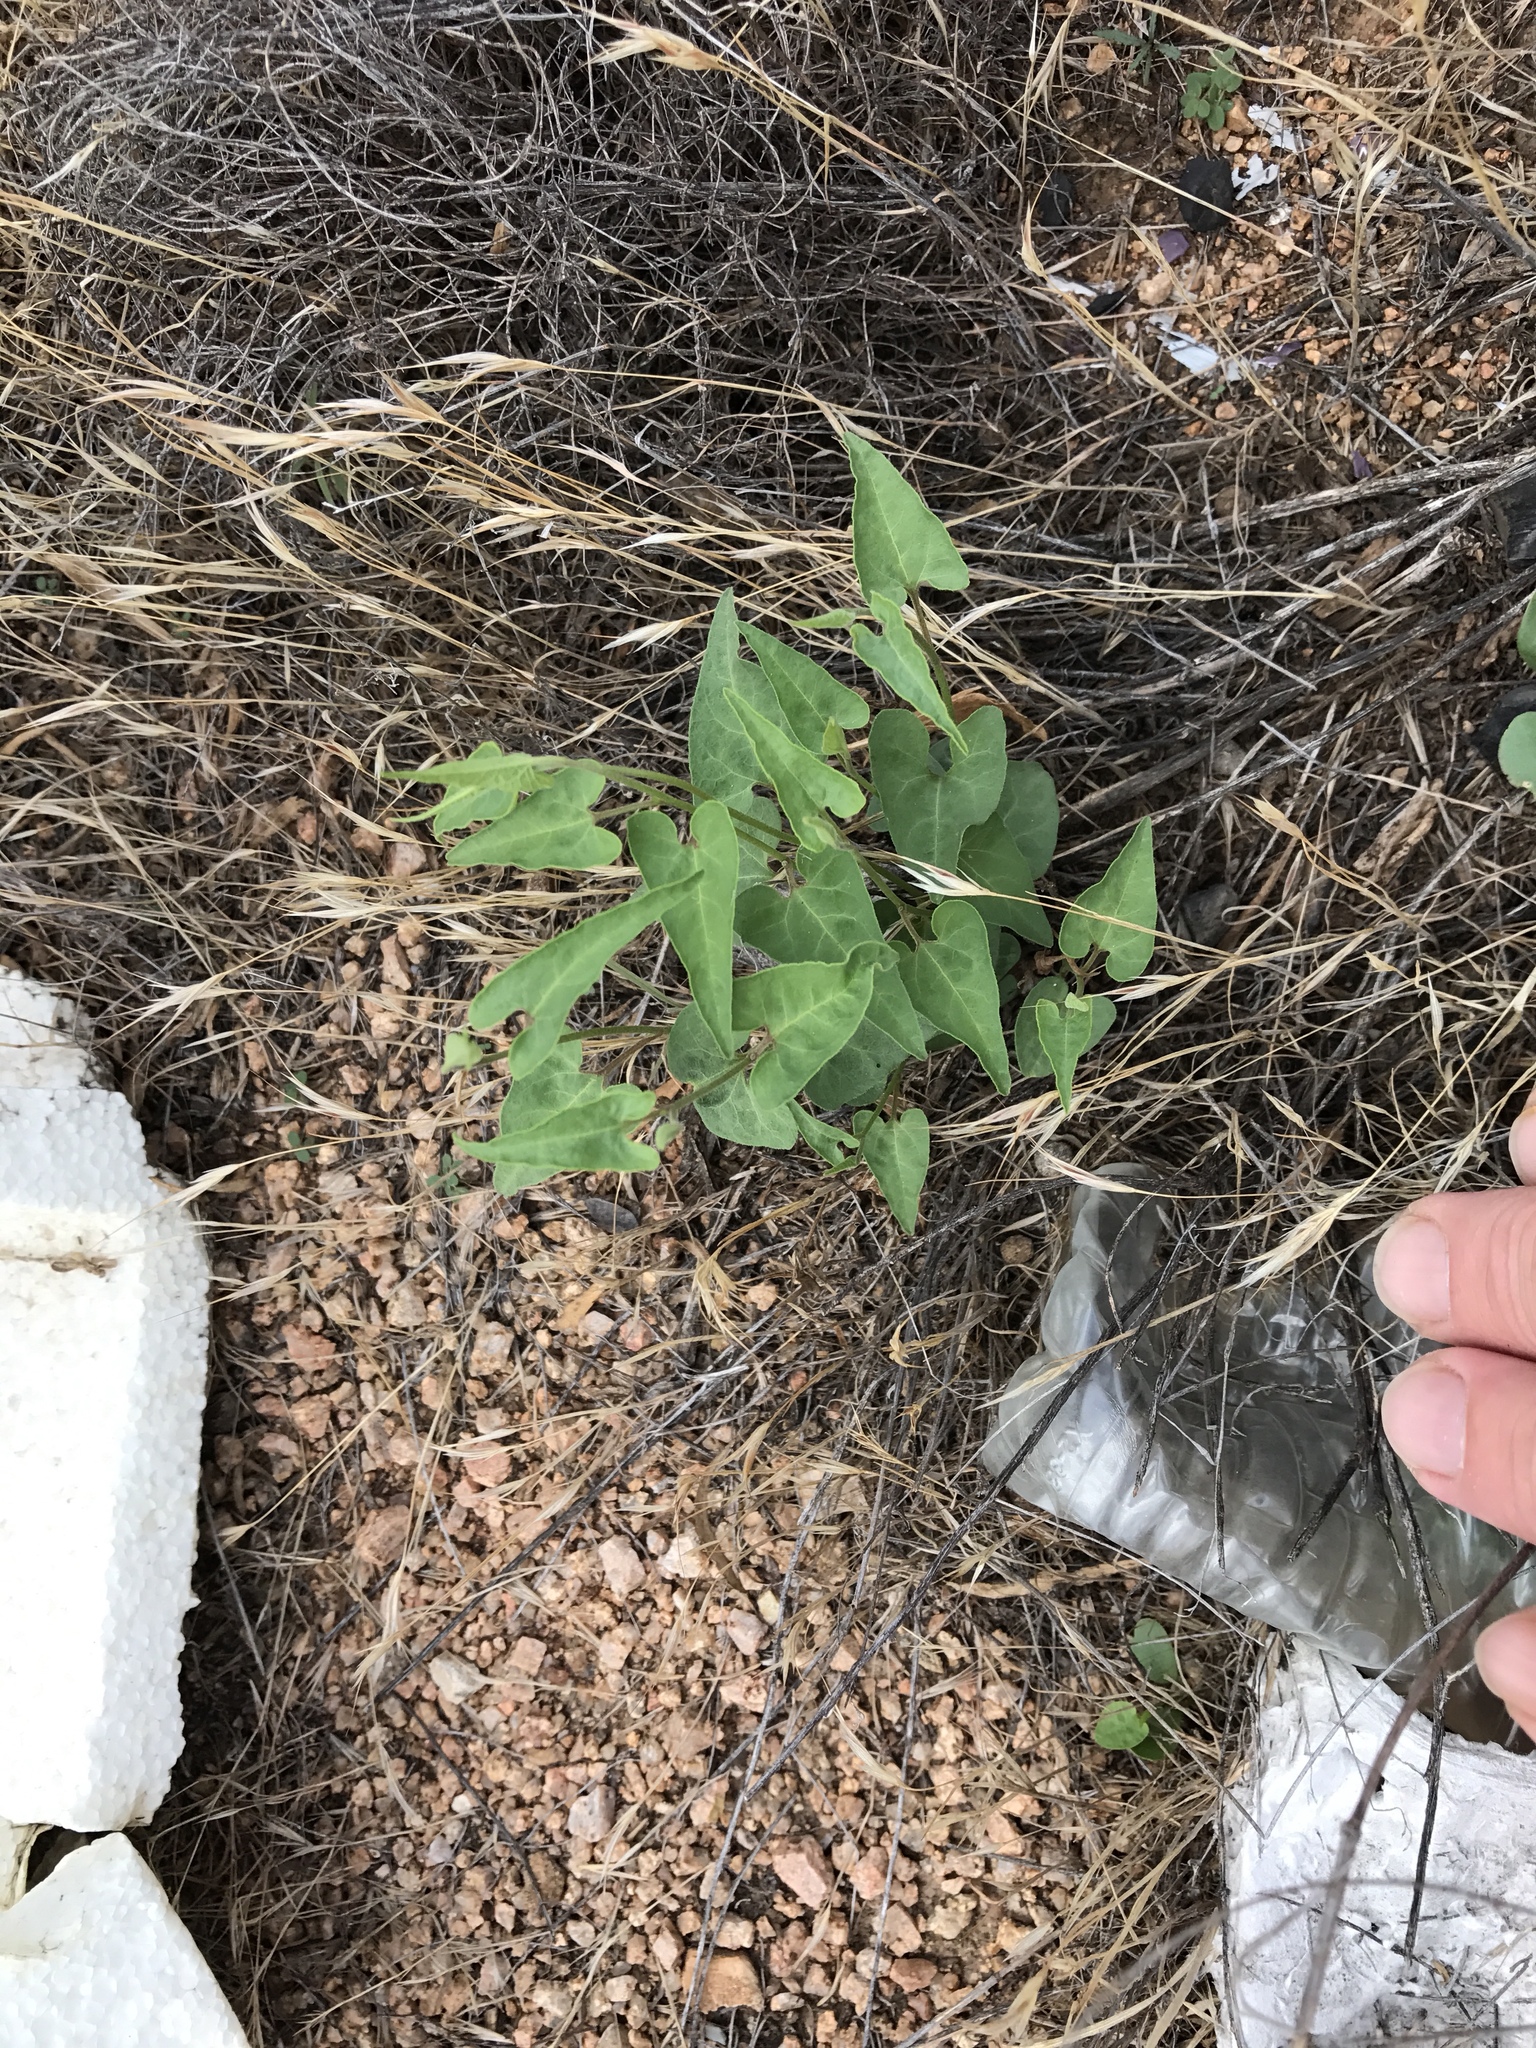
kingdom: Plantae
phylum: Tracheophyta
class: Magnoliopsida
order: Piperales
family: Aristolochiaceae
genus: Aristolochia
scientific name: Aristolochia watsonii
